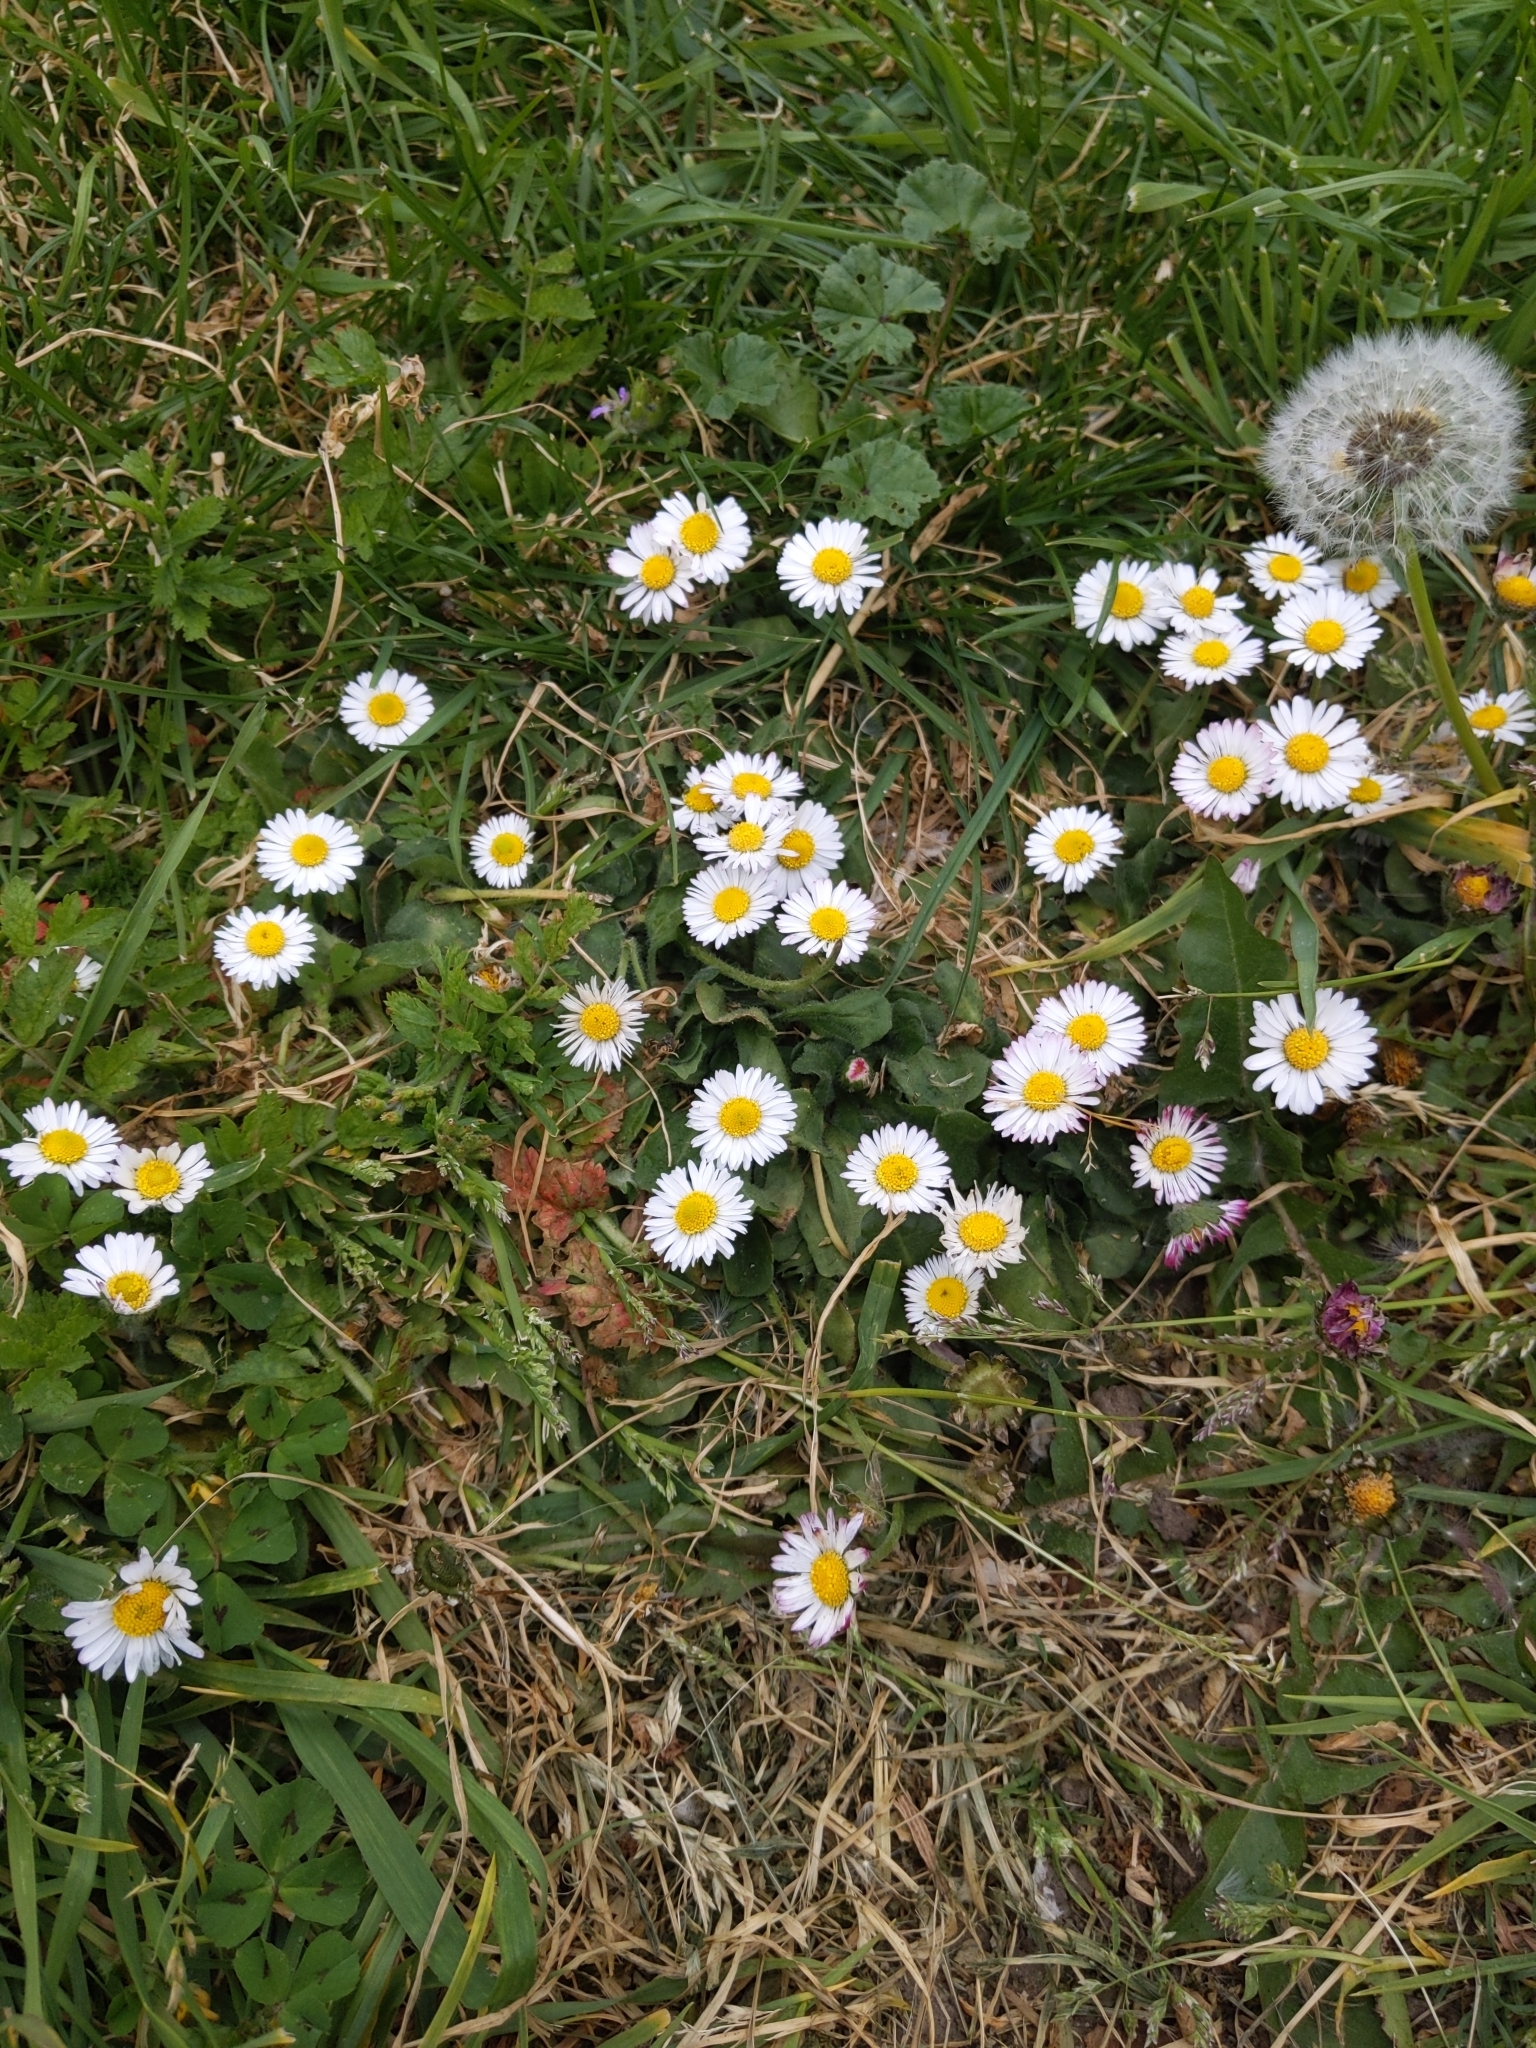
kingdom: Plantae
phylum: Tracheophyta
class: Magnoliopsida
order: Asterales
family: Asteraceae
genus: Bellis
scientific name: Bellis perennis
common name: Lawndaisy
